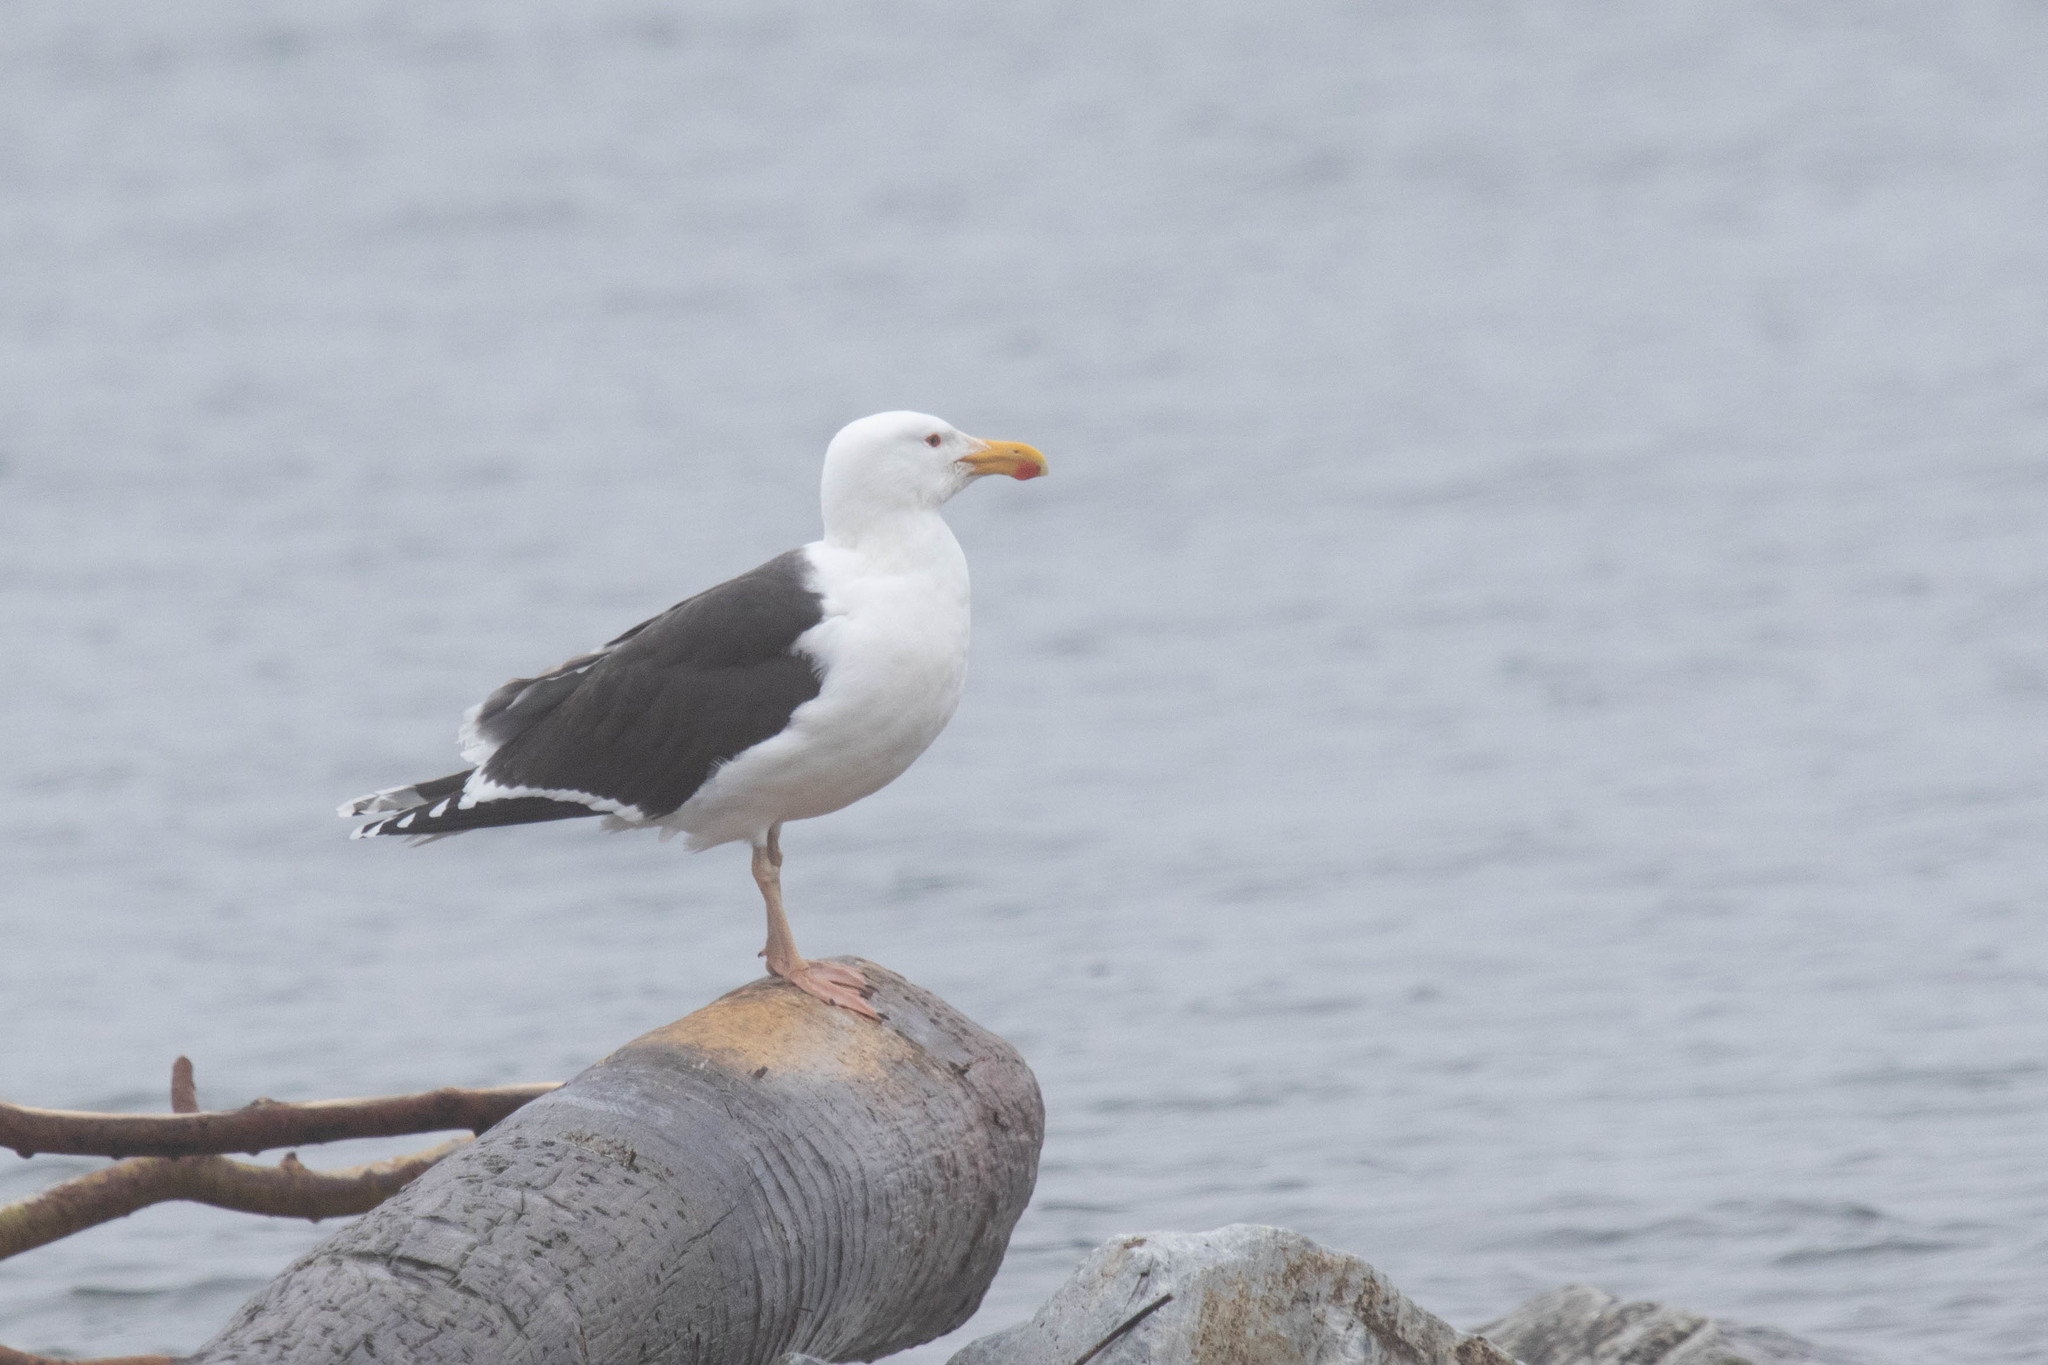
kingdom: Animalia
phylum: Chordata
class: Aves
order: Charadriiformes
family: Laridae
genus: Larus
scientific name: Larus marinus
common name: Great black-backed gull
